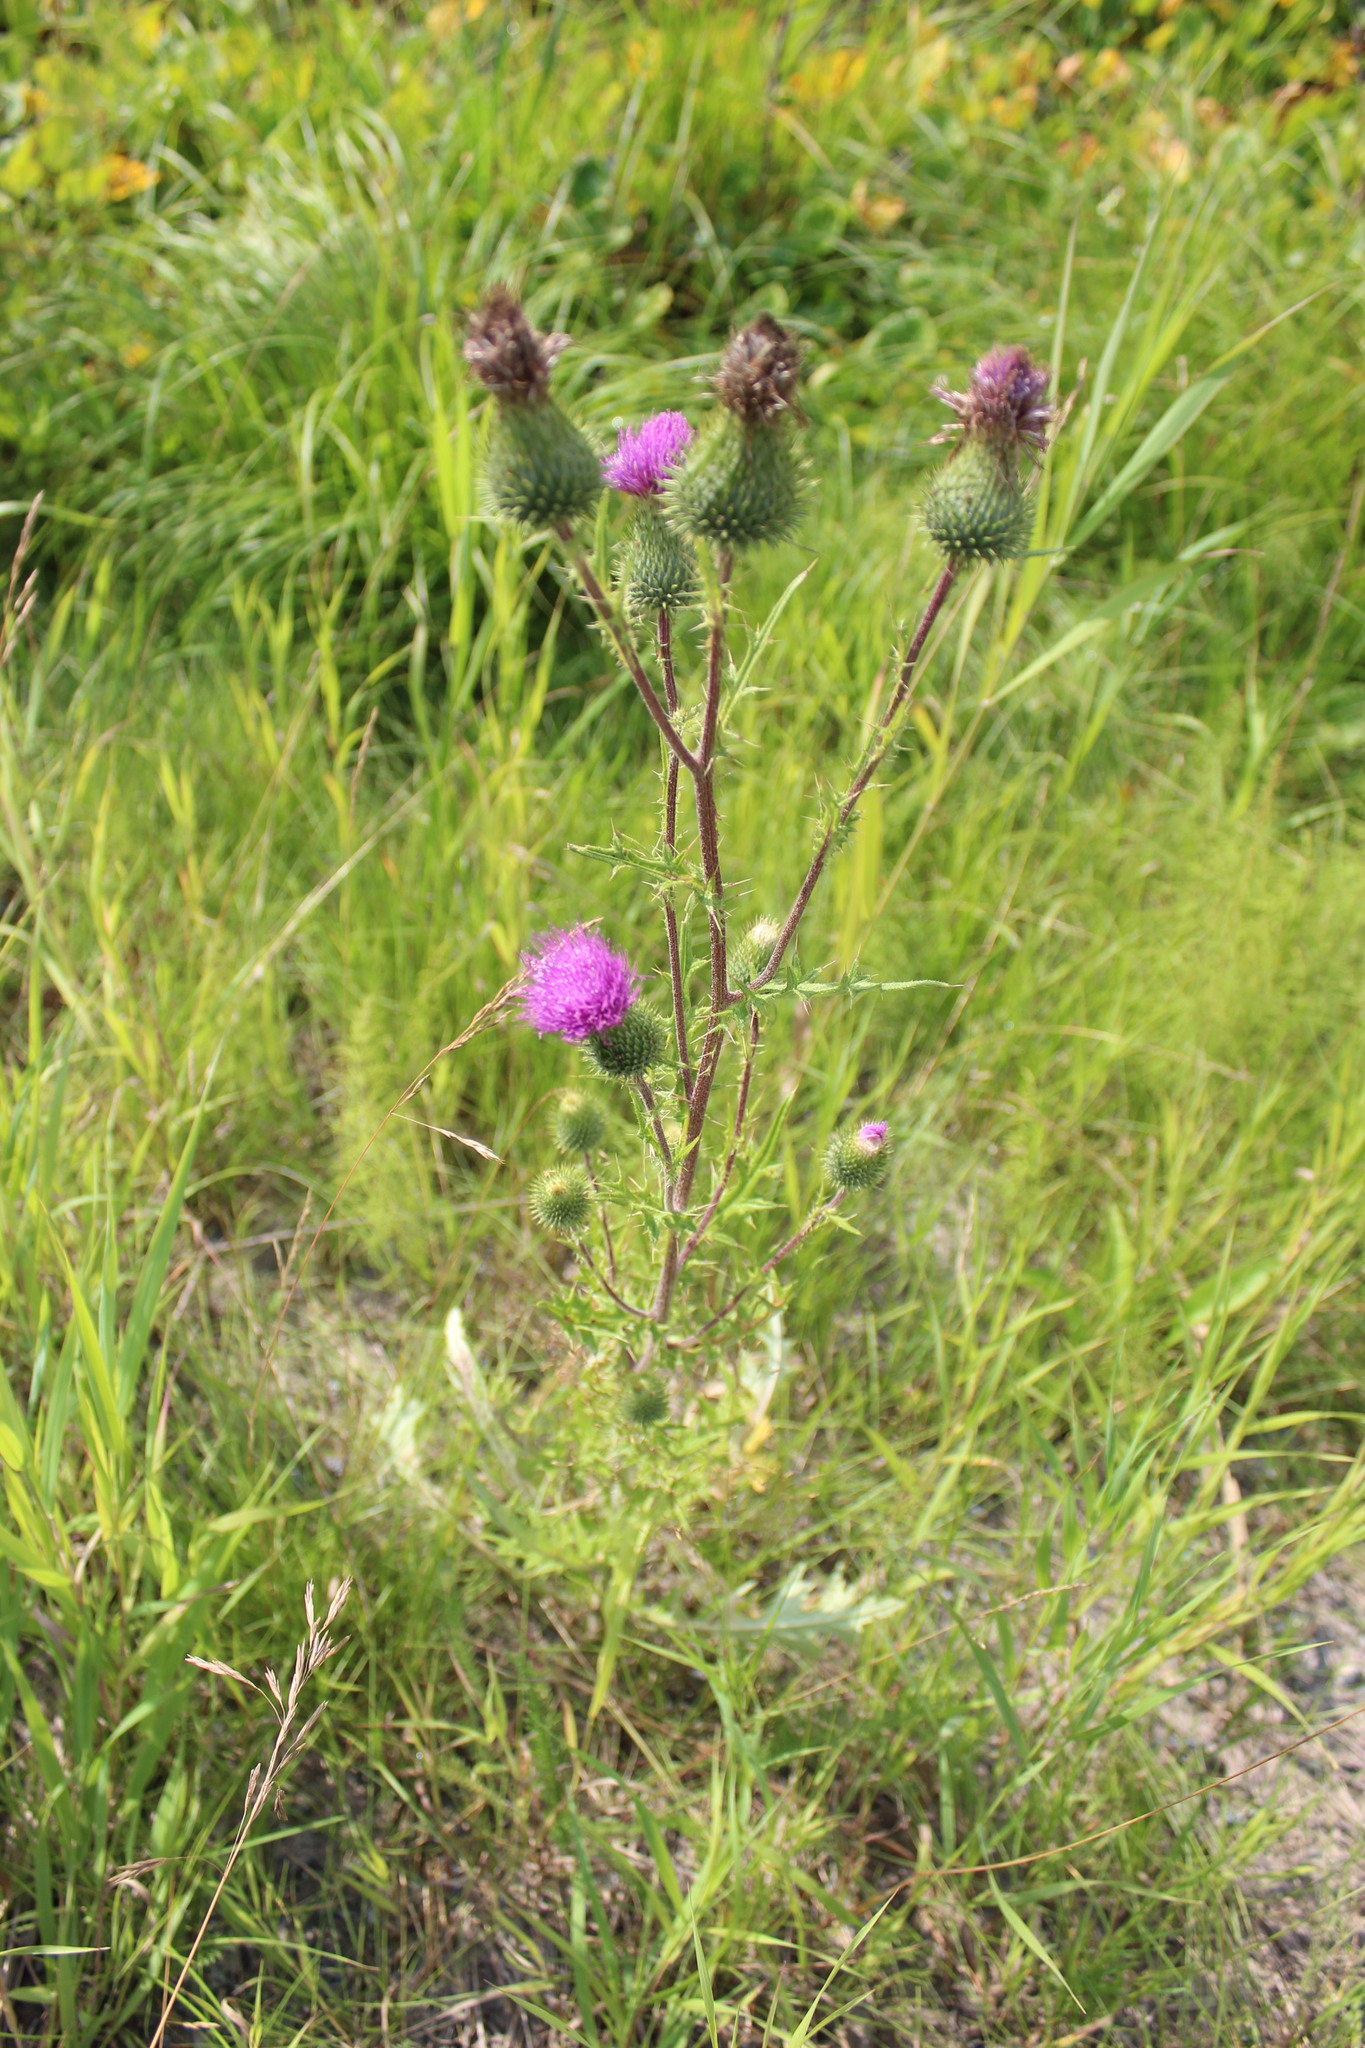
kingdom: Plantae
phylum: Tracheophyta
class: Magnoliopsida
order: Asterales
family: Asteraceae
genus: Cirsium
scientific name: Cirsium vulgare
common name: Bull thistle
